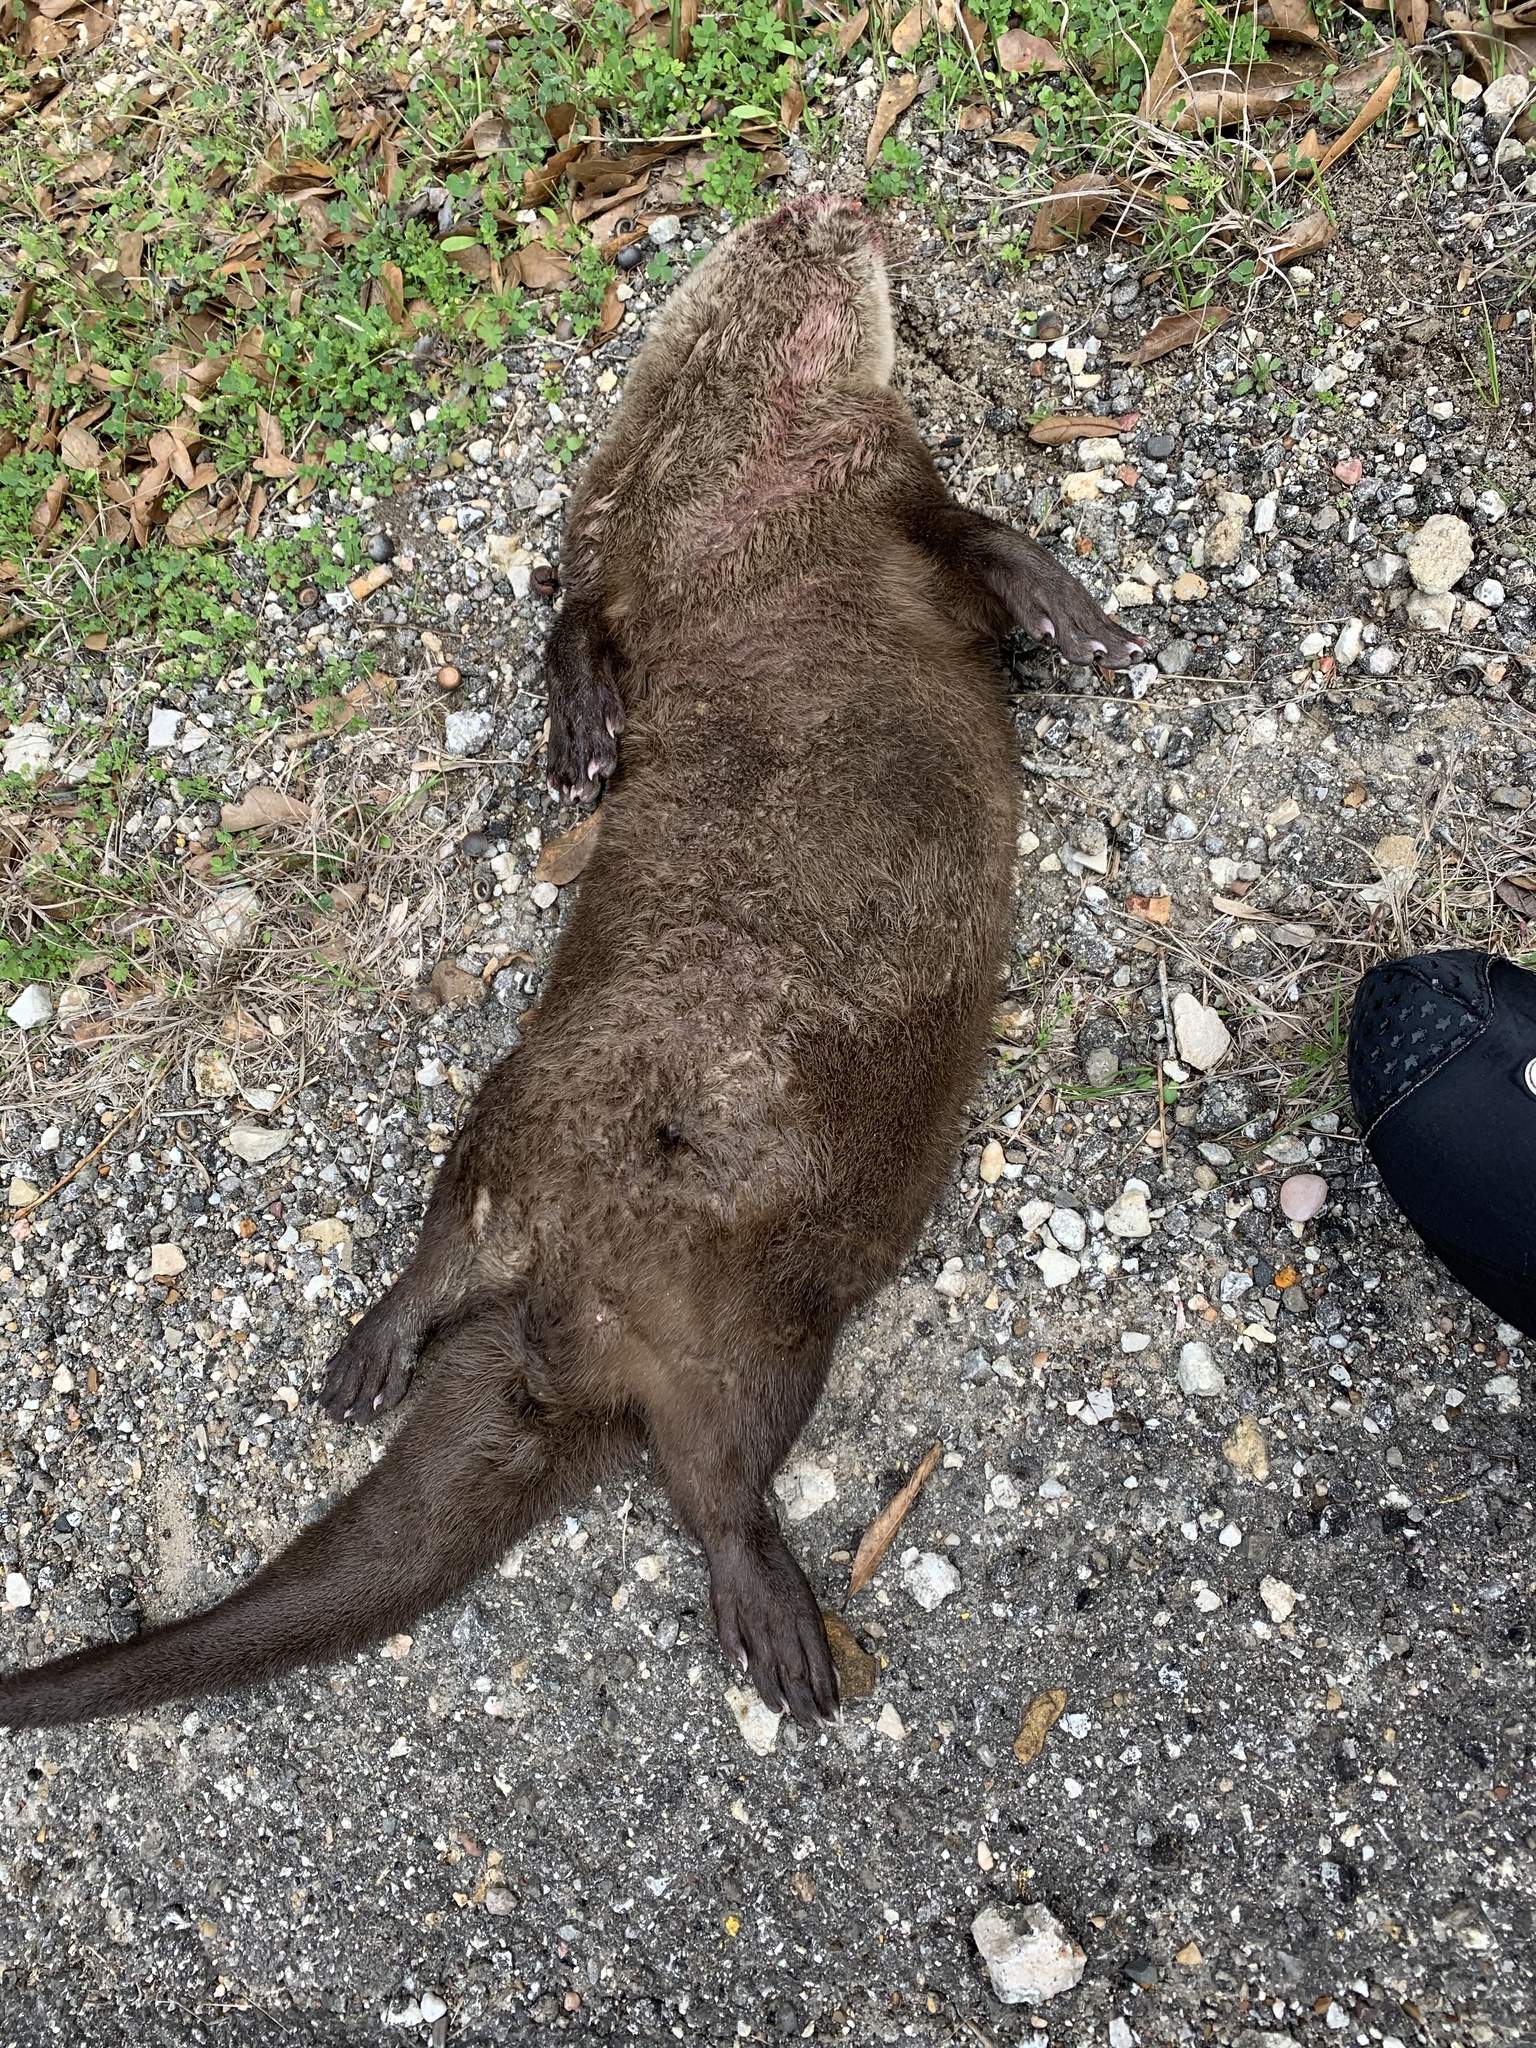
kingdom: Animalia
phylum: Chordata
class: Mammalia
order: Carnivora
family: Mustelidae
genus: Lontra
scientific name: Lontra canadensis
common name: North american river otter
